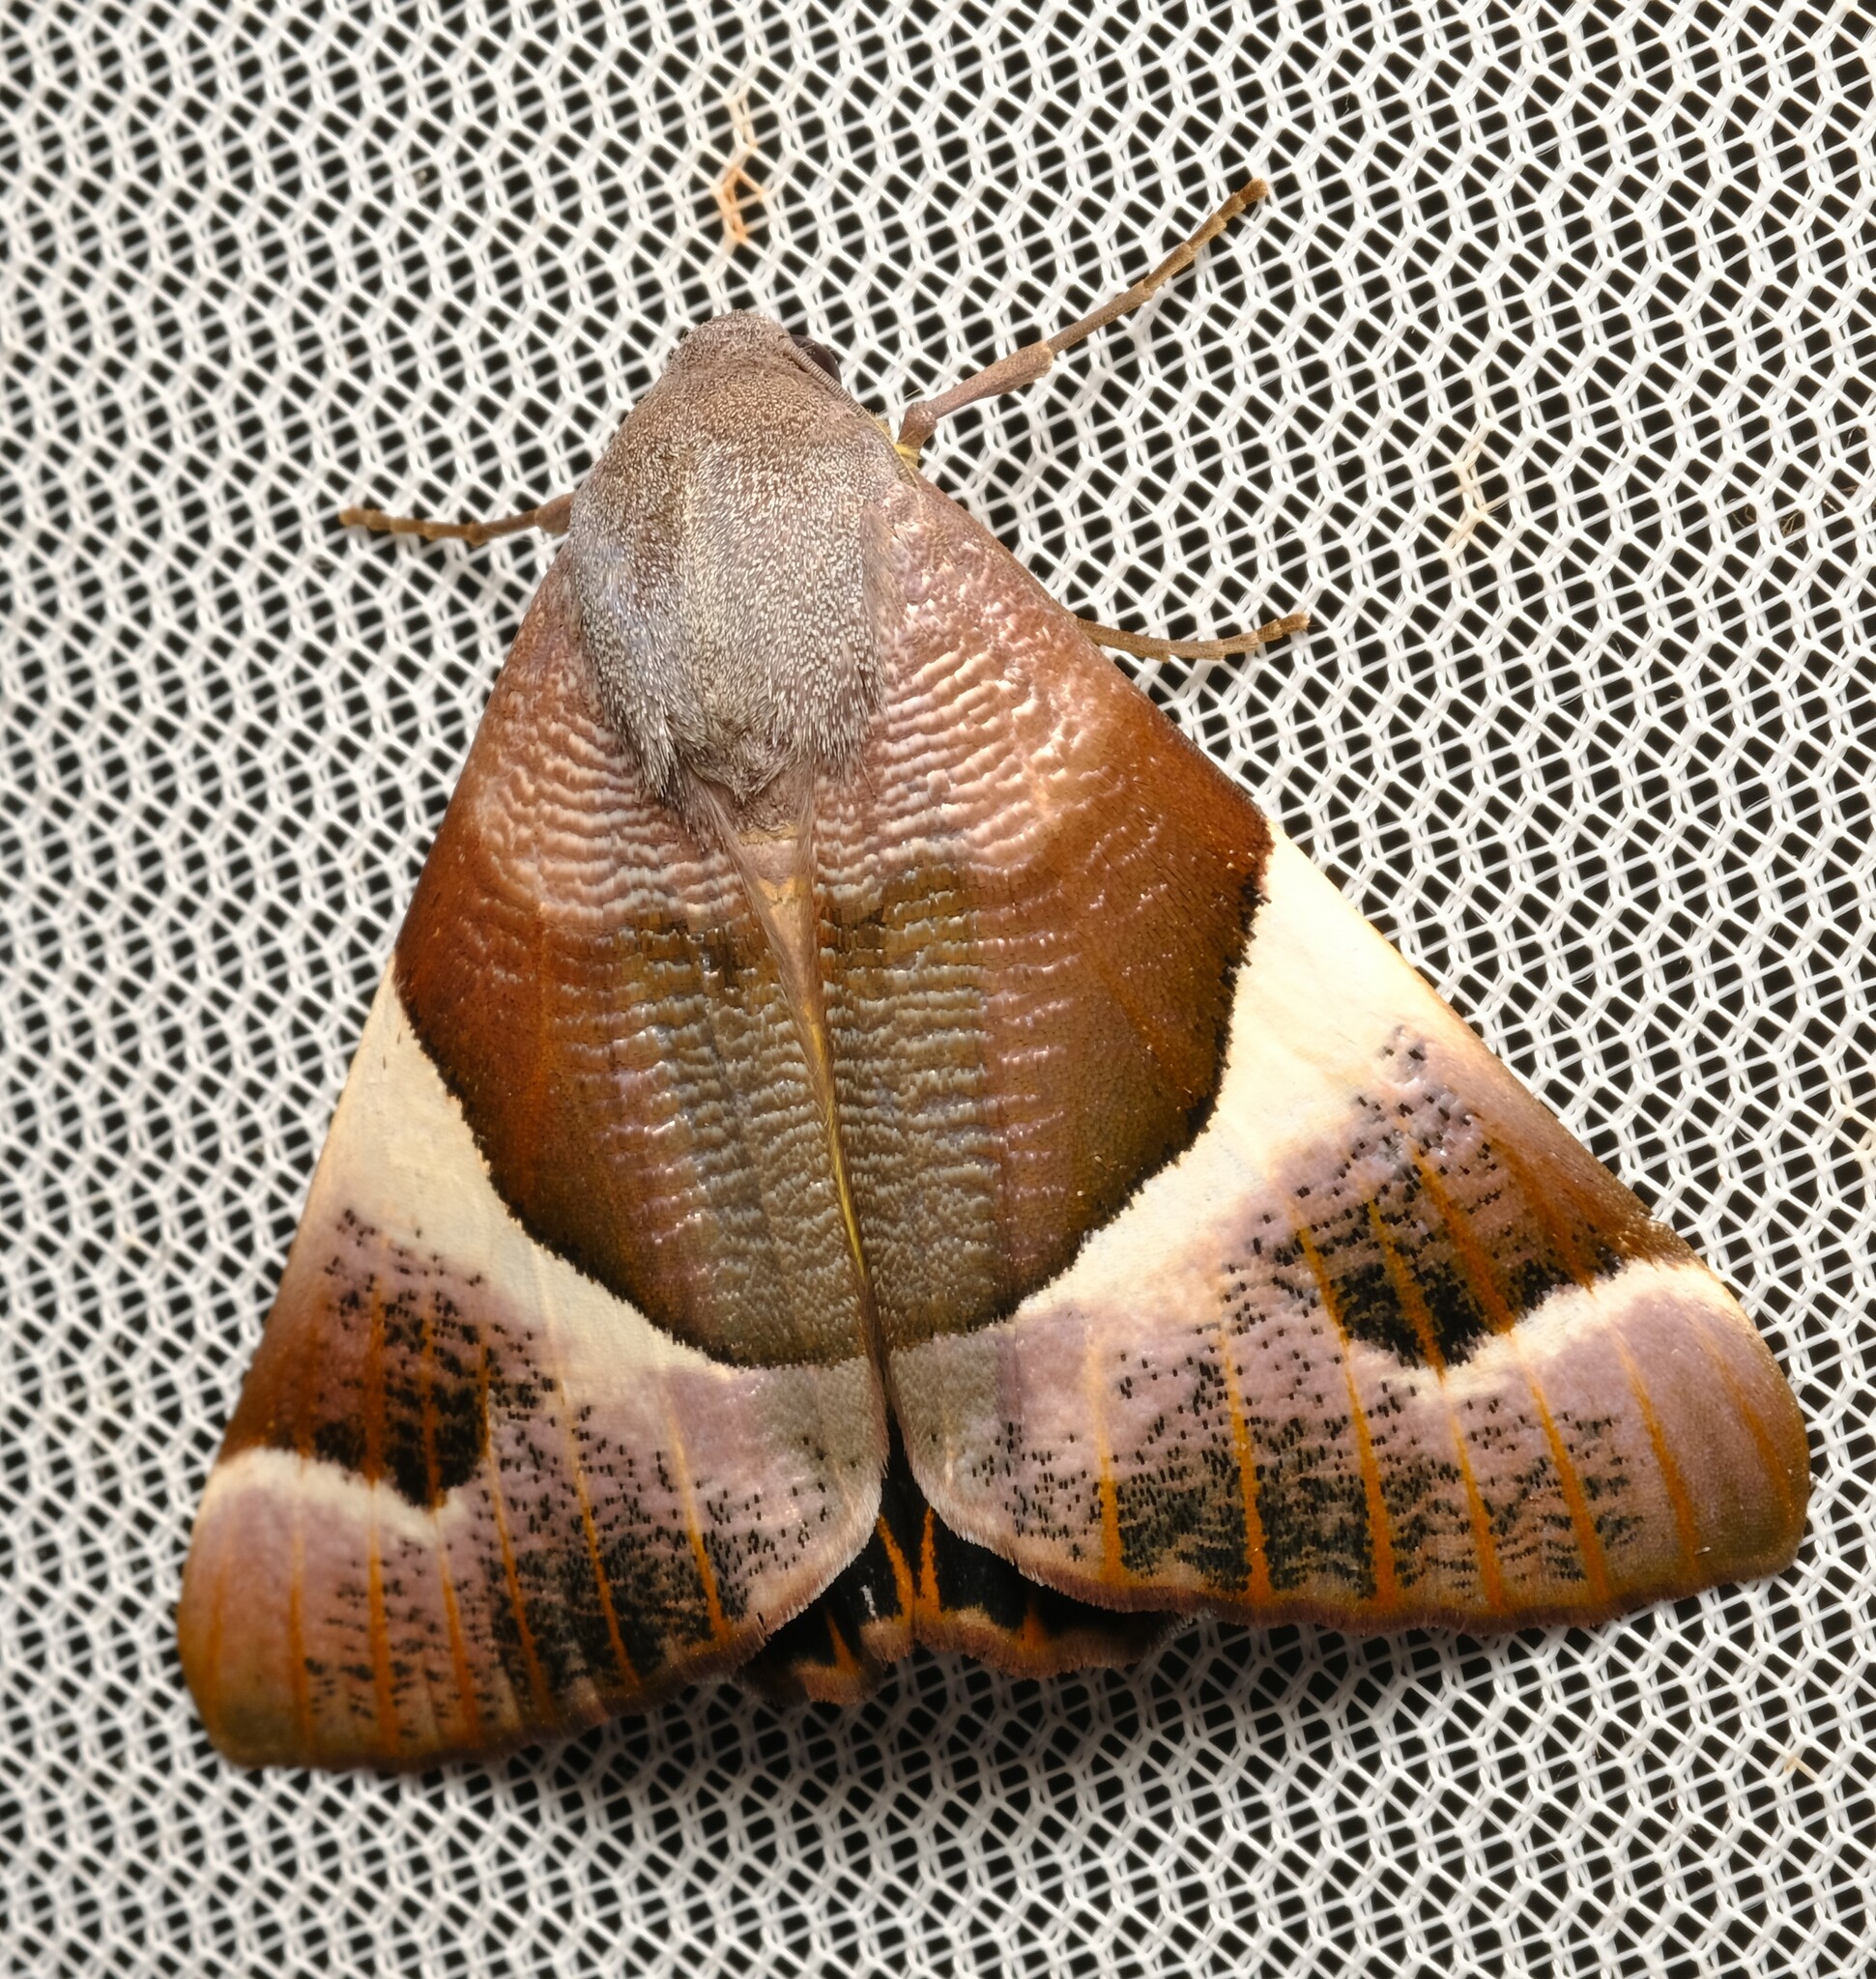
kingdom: Animalia
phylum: Arthropoda
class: Insecta
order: Lepidoptera
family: Geometridae
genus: Niceteria
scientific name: Niceteria macrocosma
